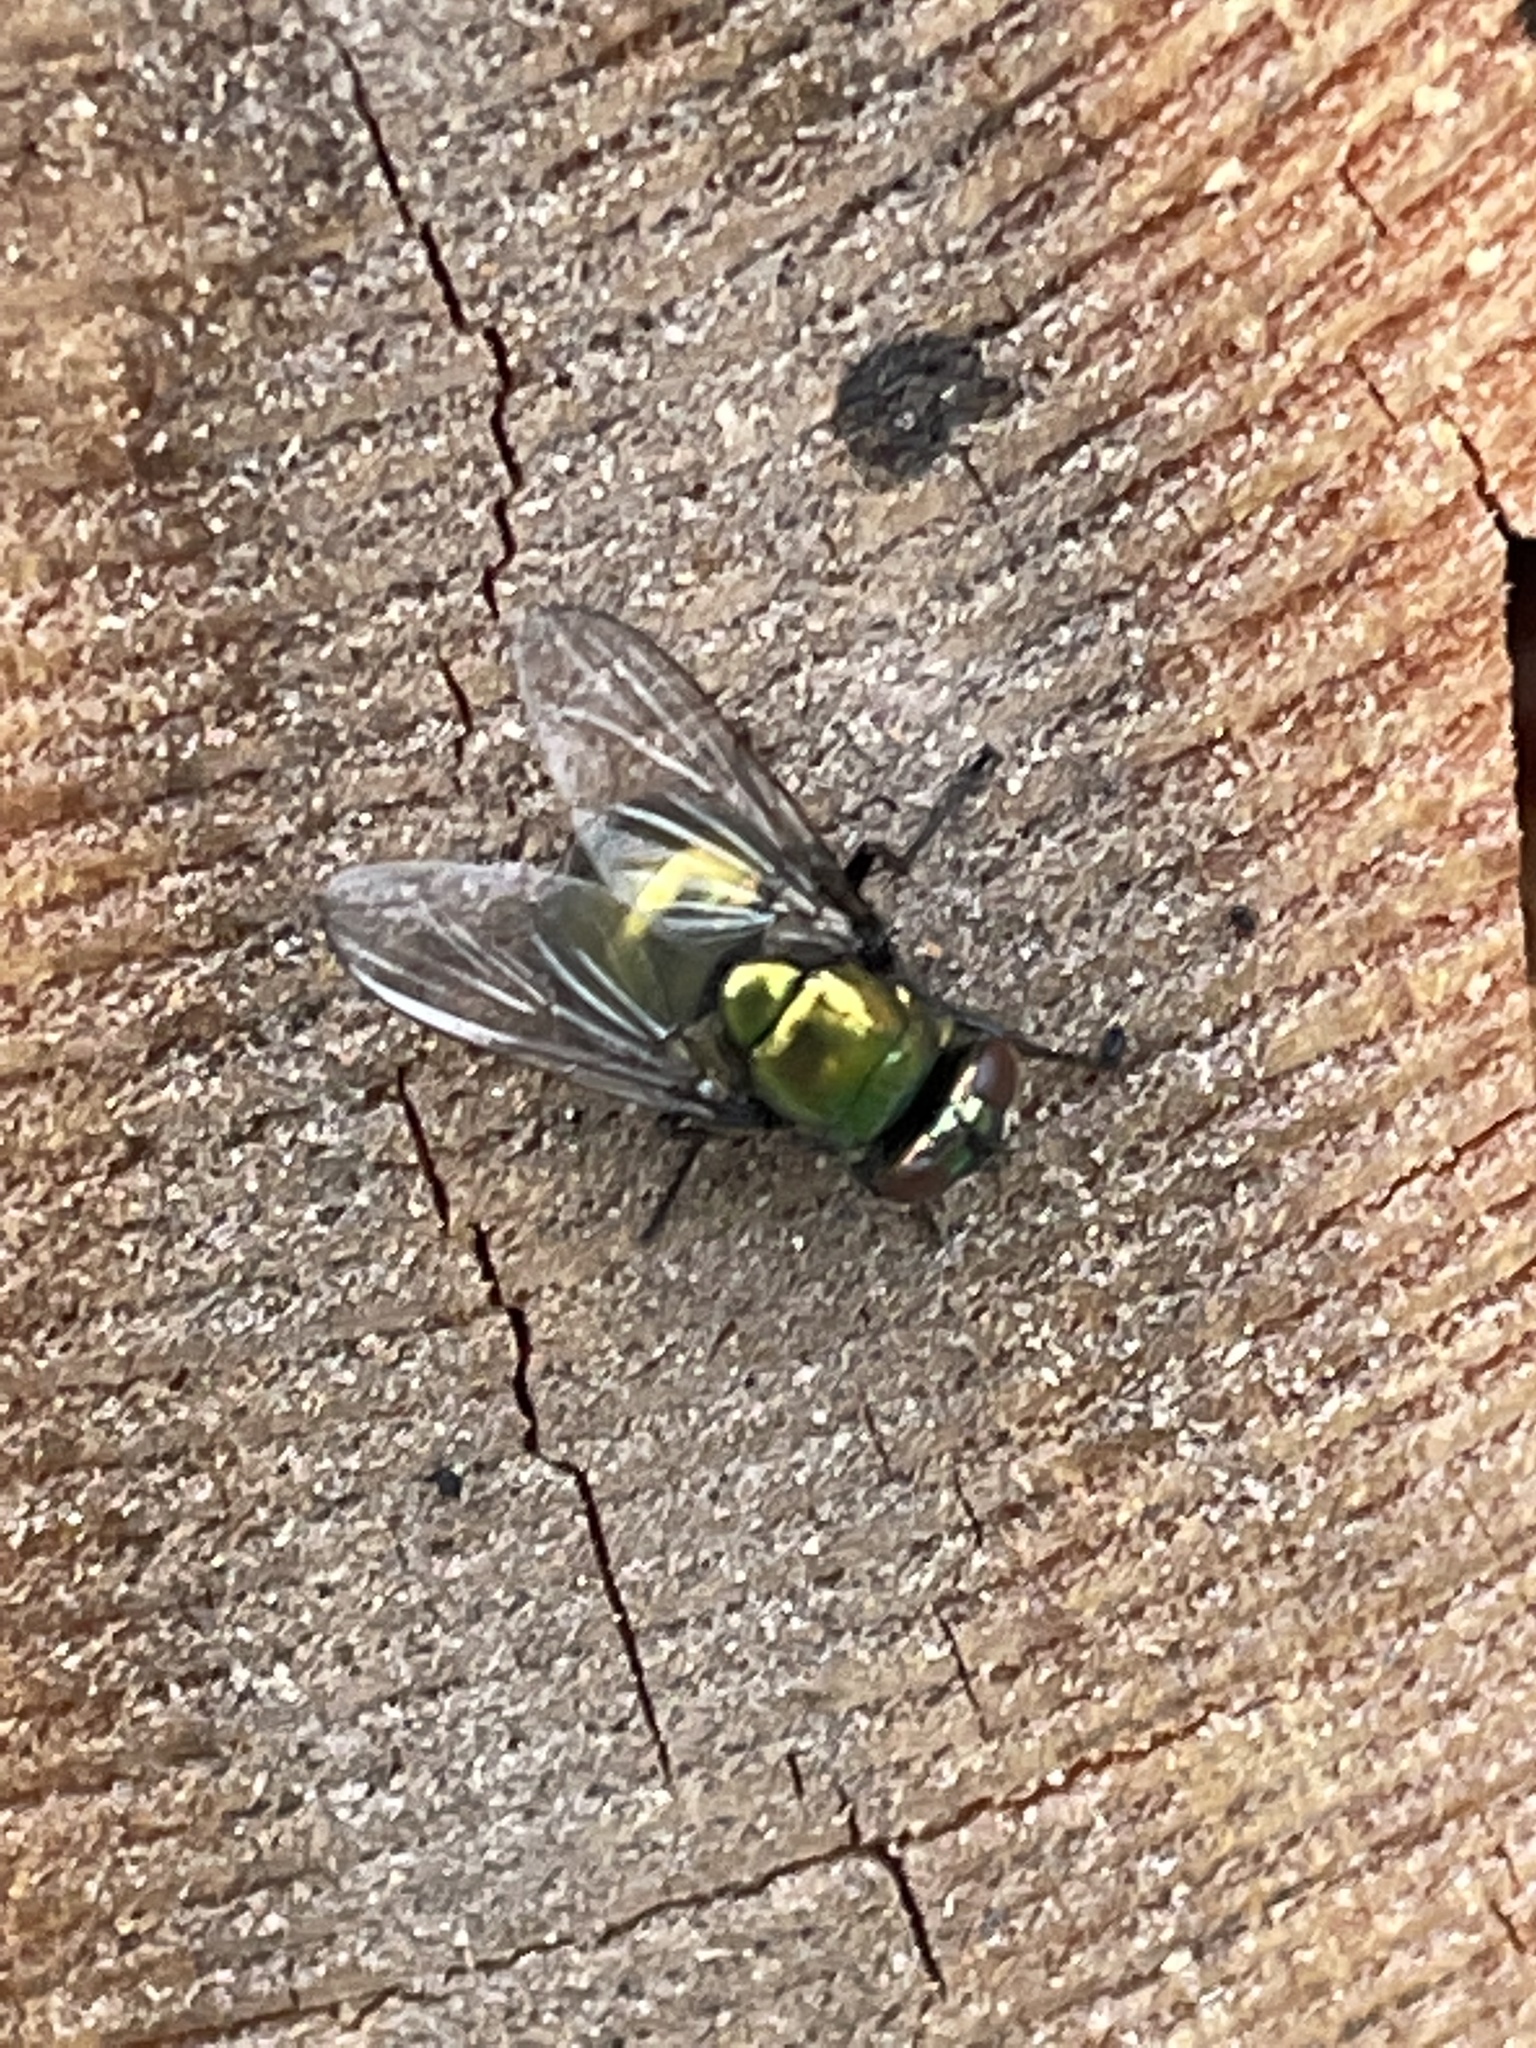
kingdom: Animalia
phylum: Arthropoda
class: Insecta
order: Diptera
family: Muscidae
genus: Neomyia
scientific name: Neomyia
